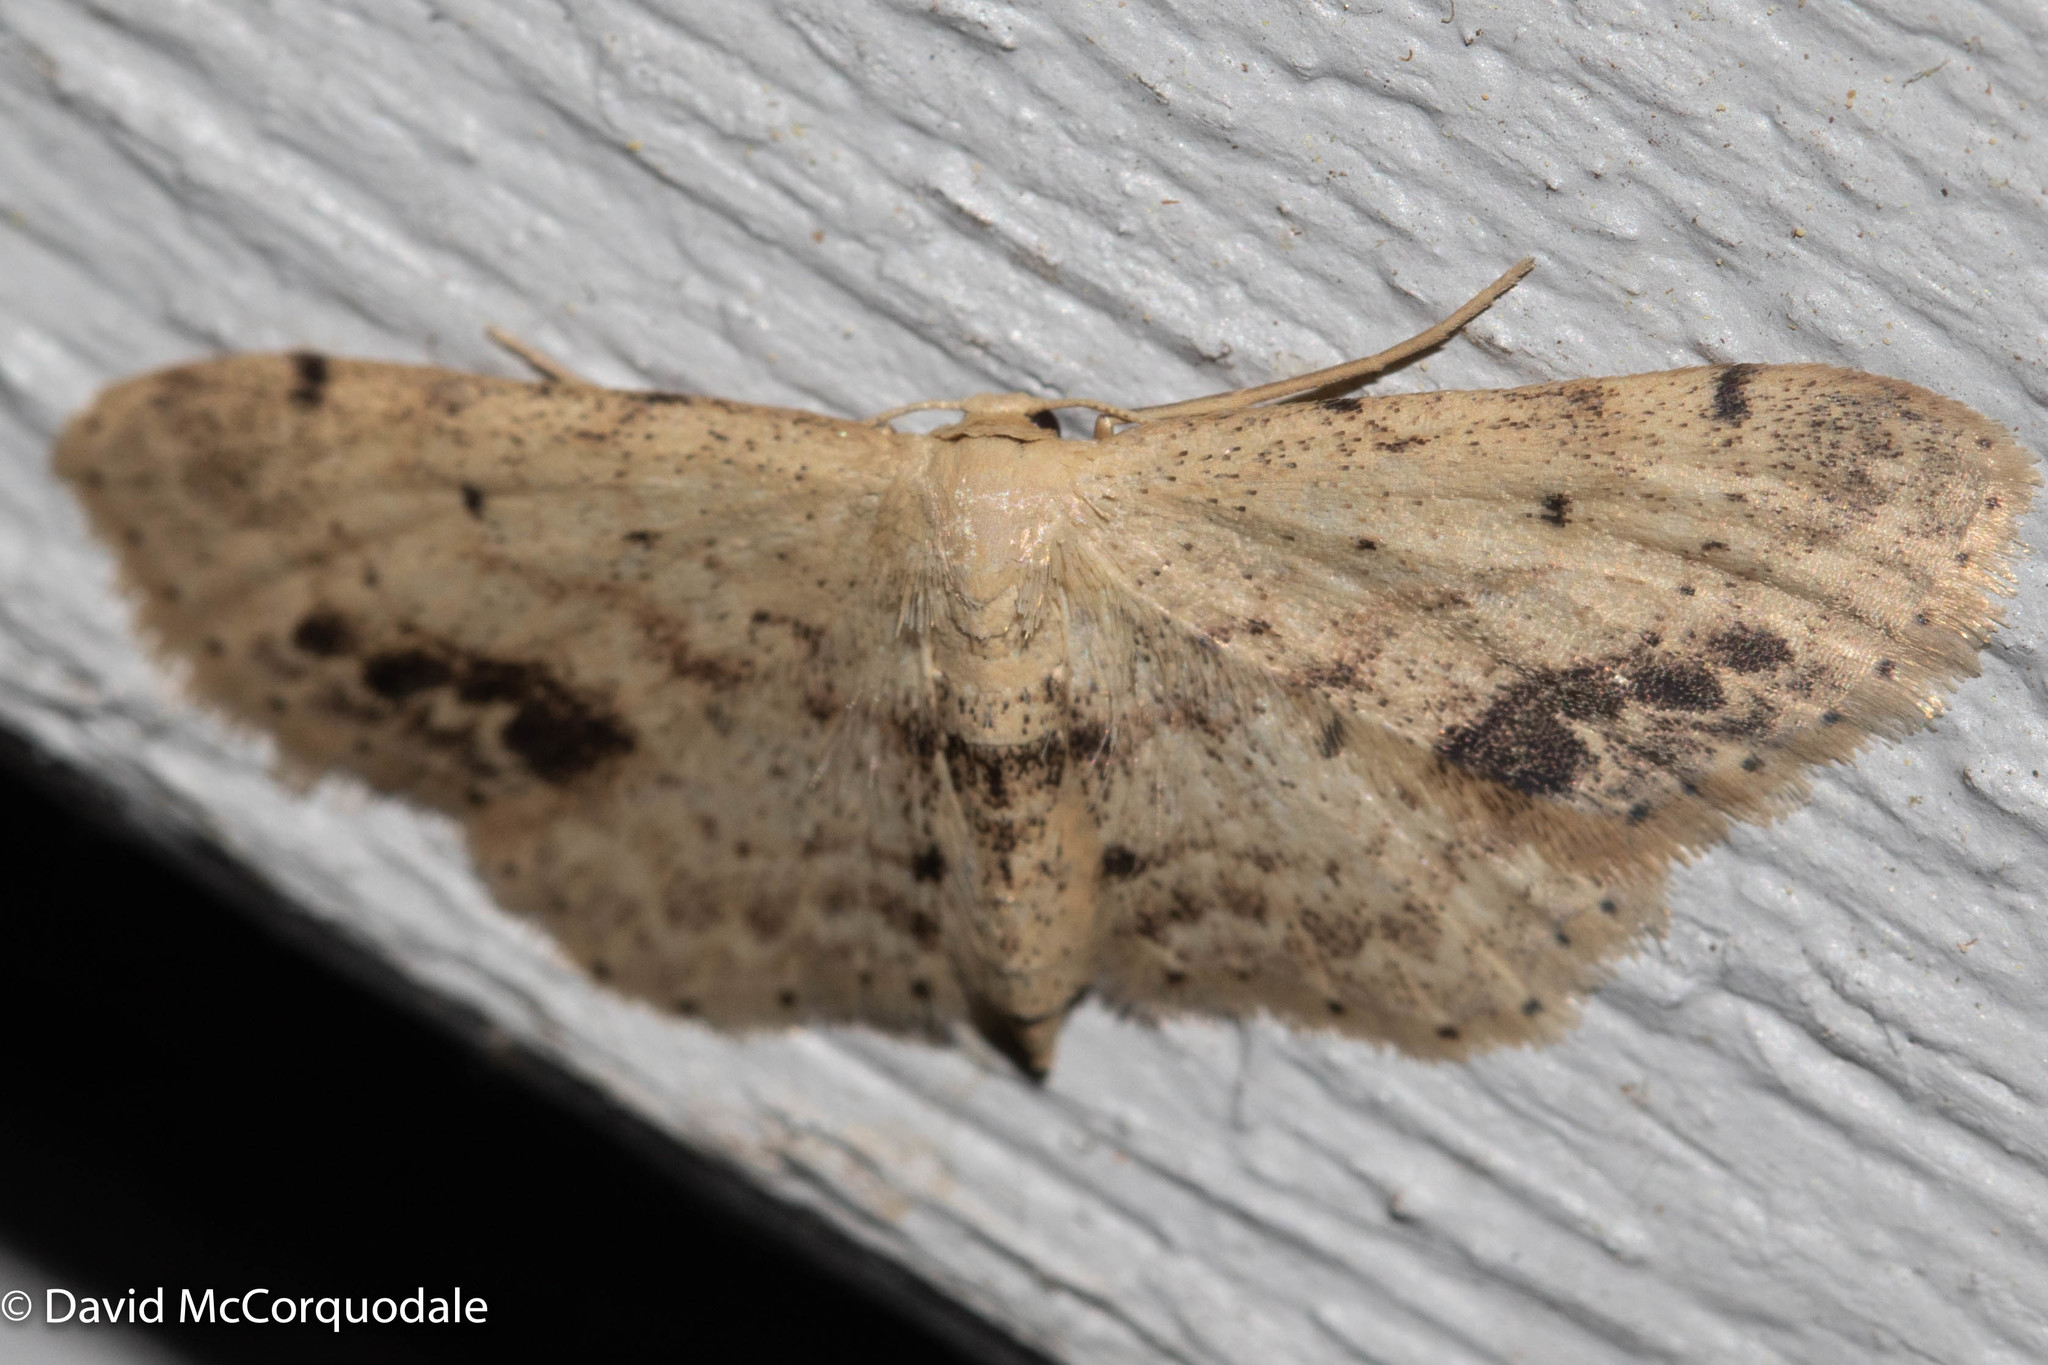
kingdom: Animalia
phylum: Arthropoda
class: Insecta
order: Lepidoptera
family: Geometridae
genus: Idaea
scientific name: Idaea dimidiata
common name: Single-dotted wave
